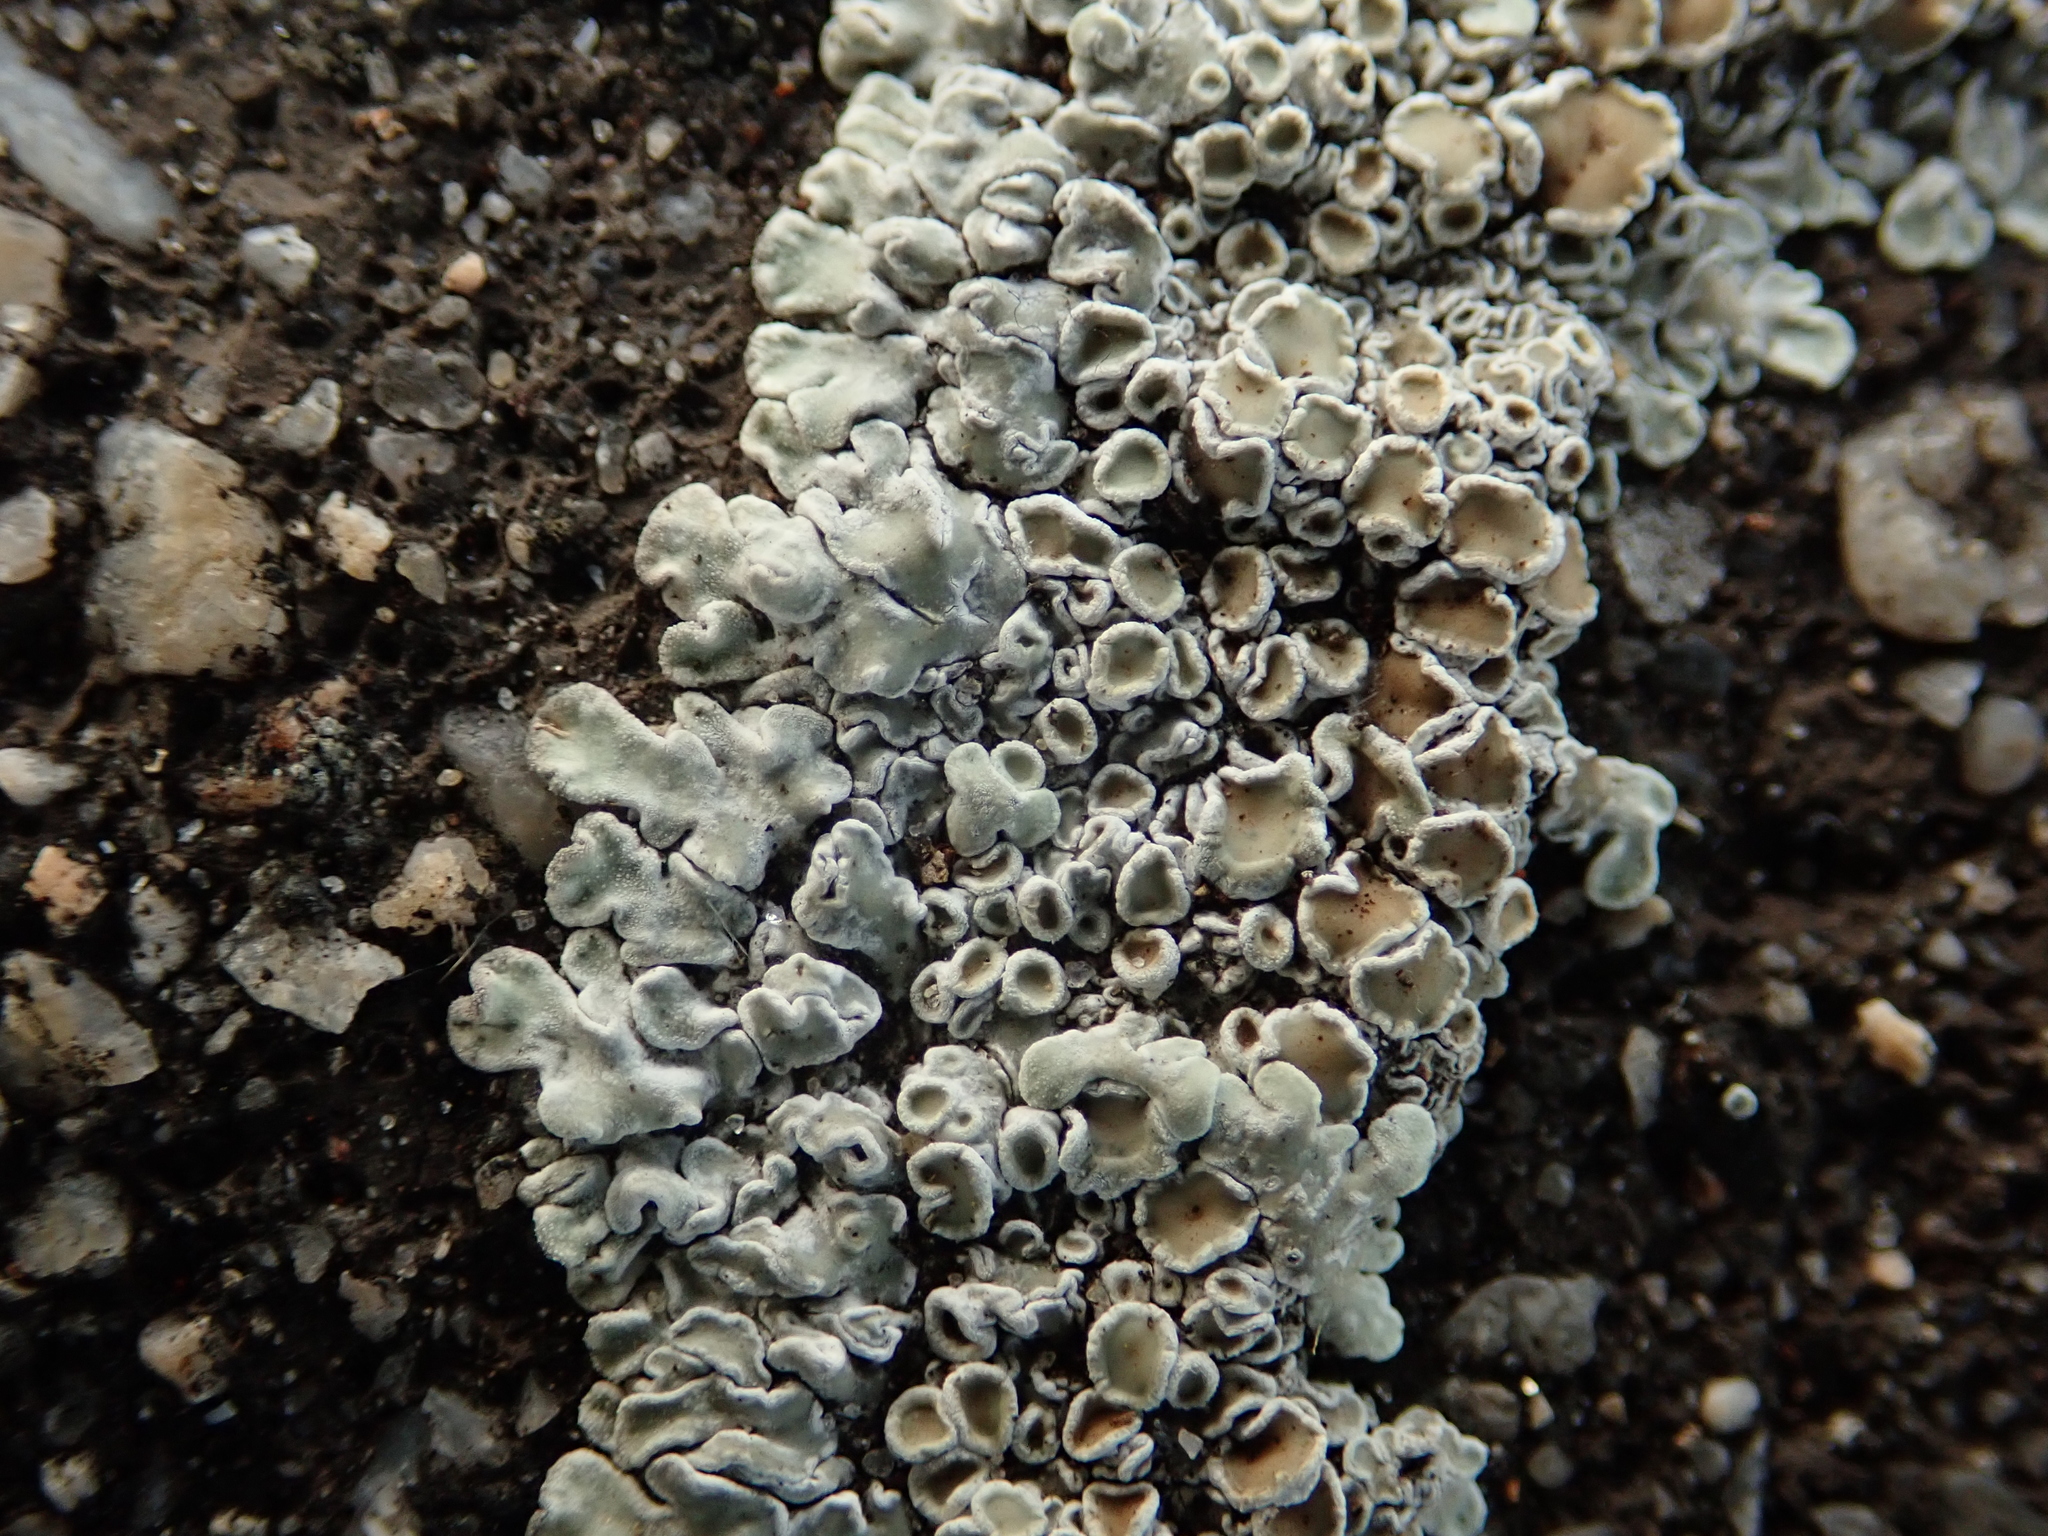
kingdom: Fungi
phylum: Ascomycota
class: Lecanoromycetes
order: Lecanorales
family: Lecanoraceae
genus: Protoparmeliopsis
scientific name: Protoparmeliopsis muralis
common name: Stonewall rim lichen
